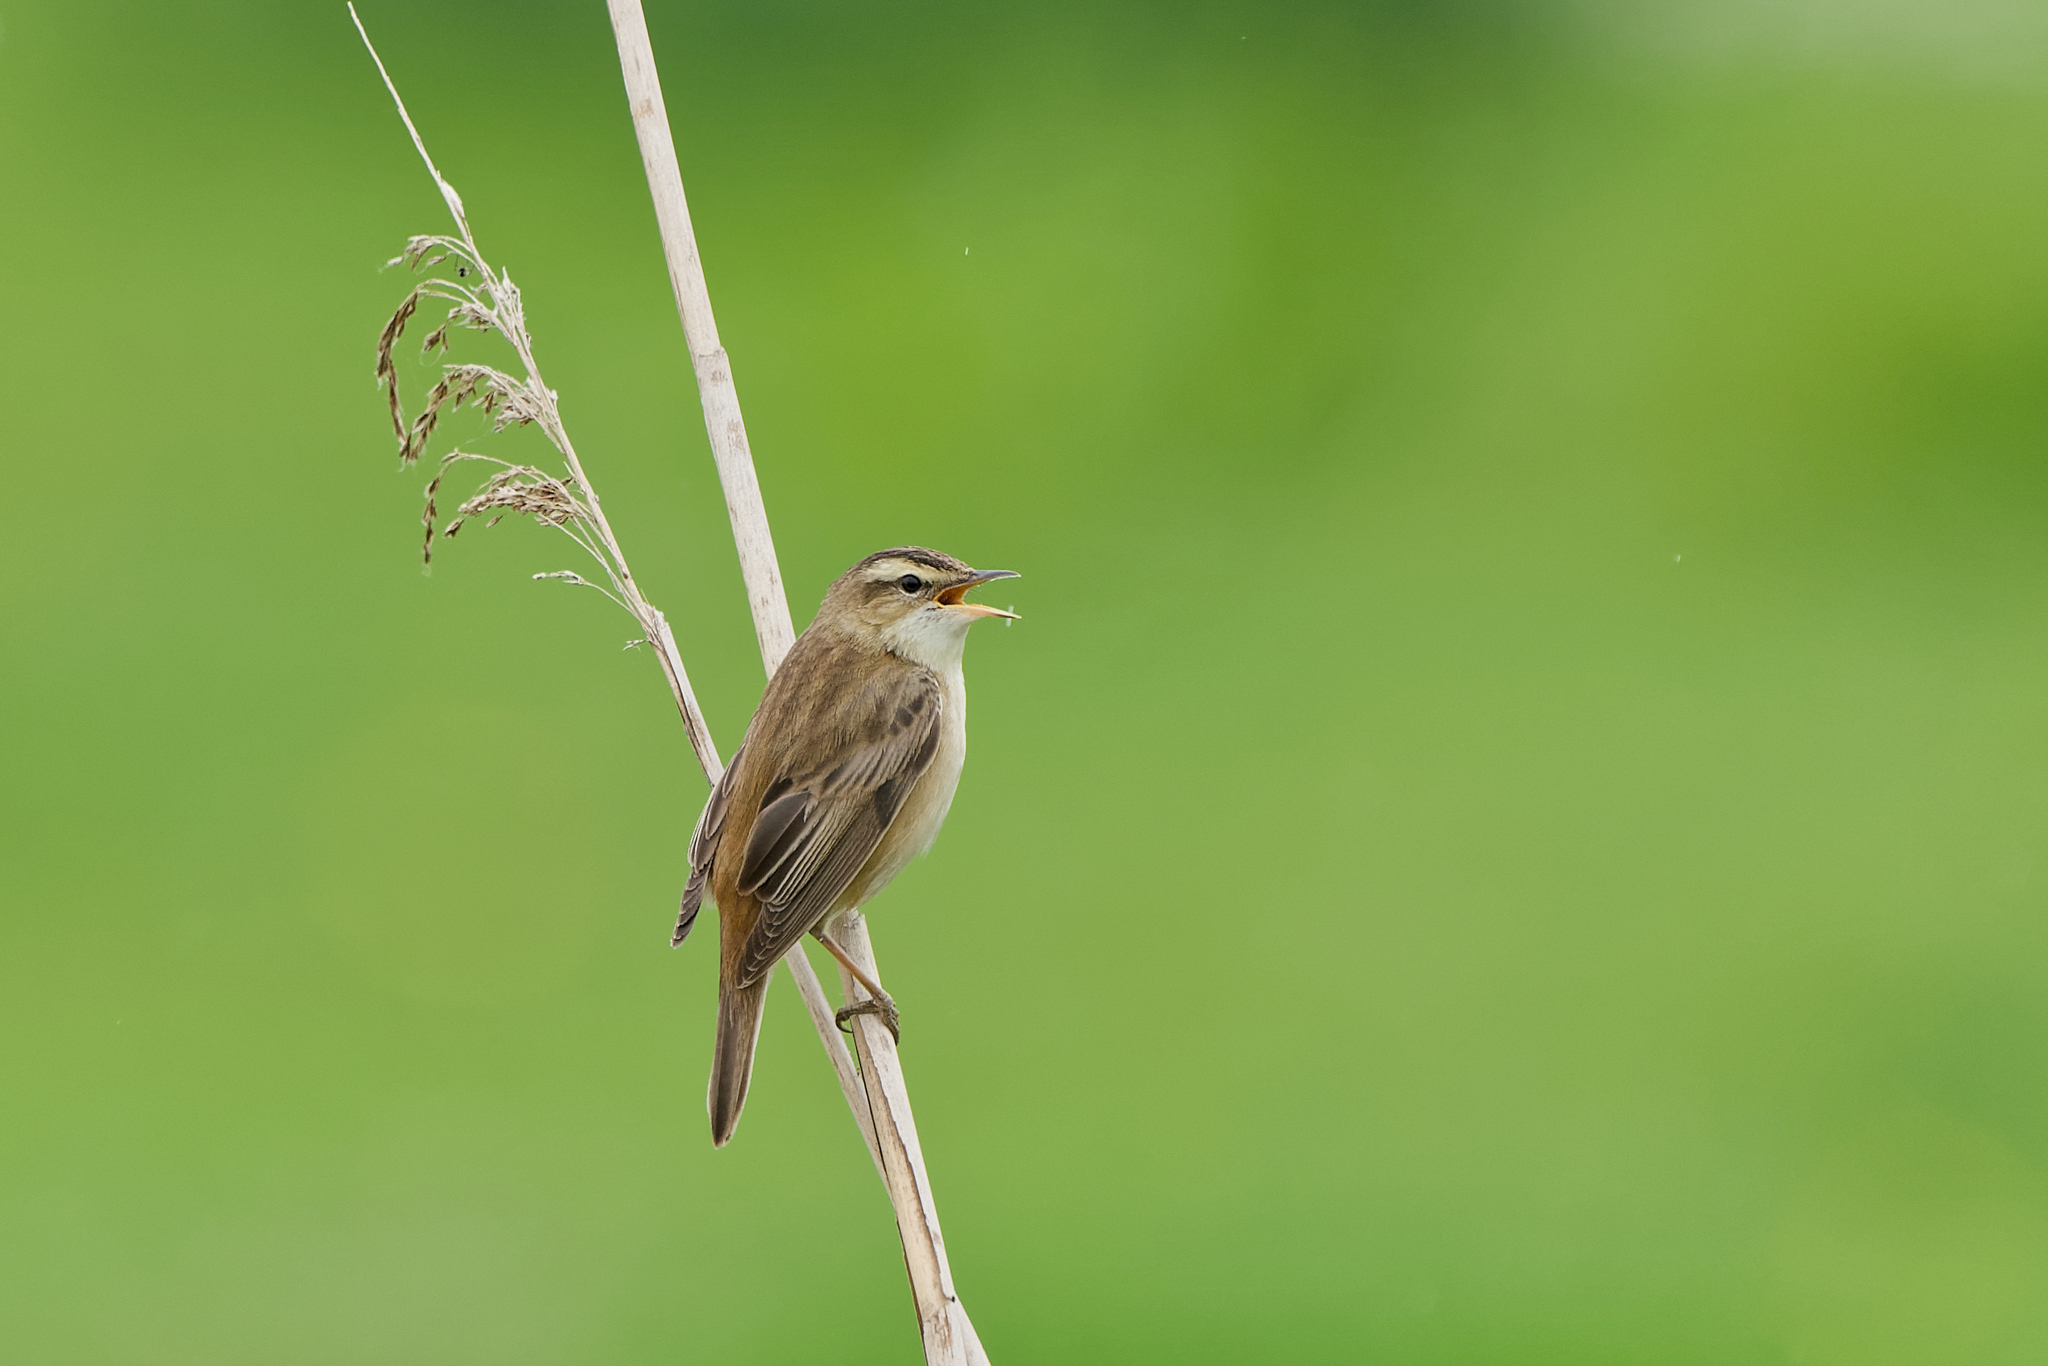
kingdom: Animalia
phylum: Chordata
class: Aves
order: Passeriformes
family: Acrocephalidae
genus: Acrocephalus
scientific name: Acrocephalus schoenobaenus
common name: Sedge warbler
